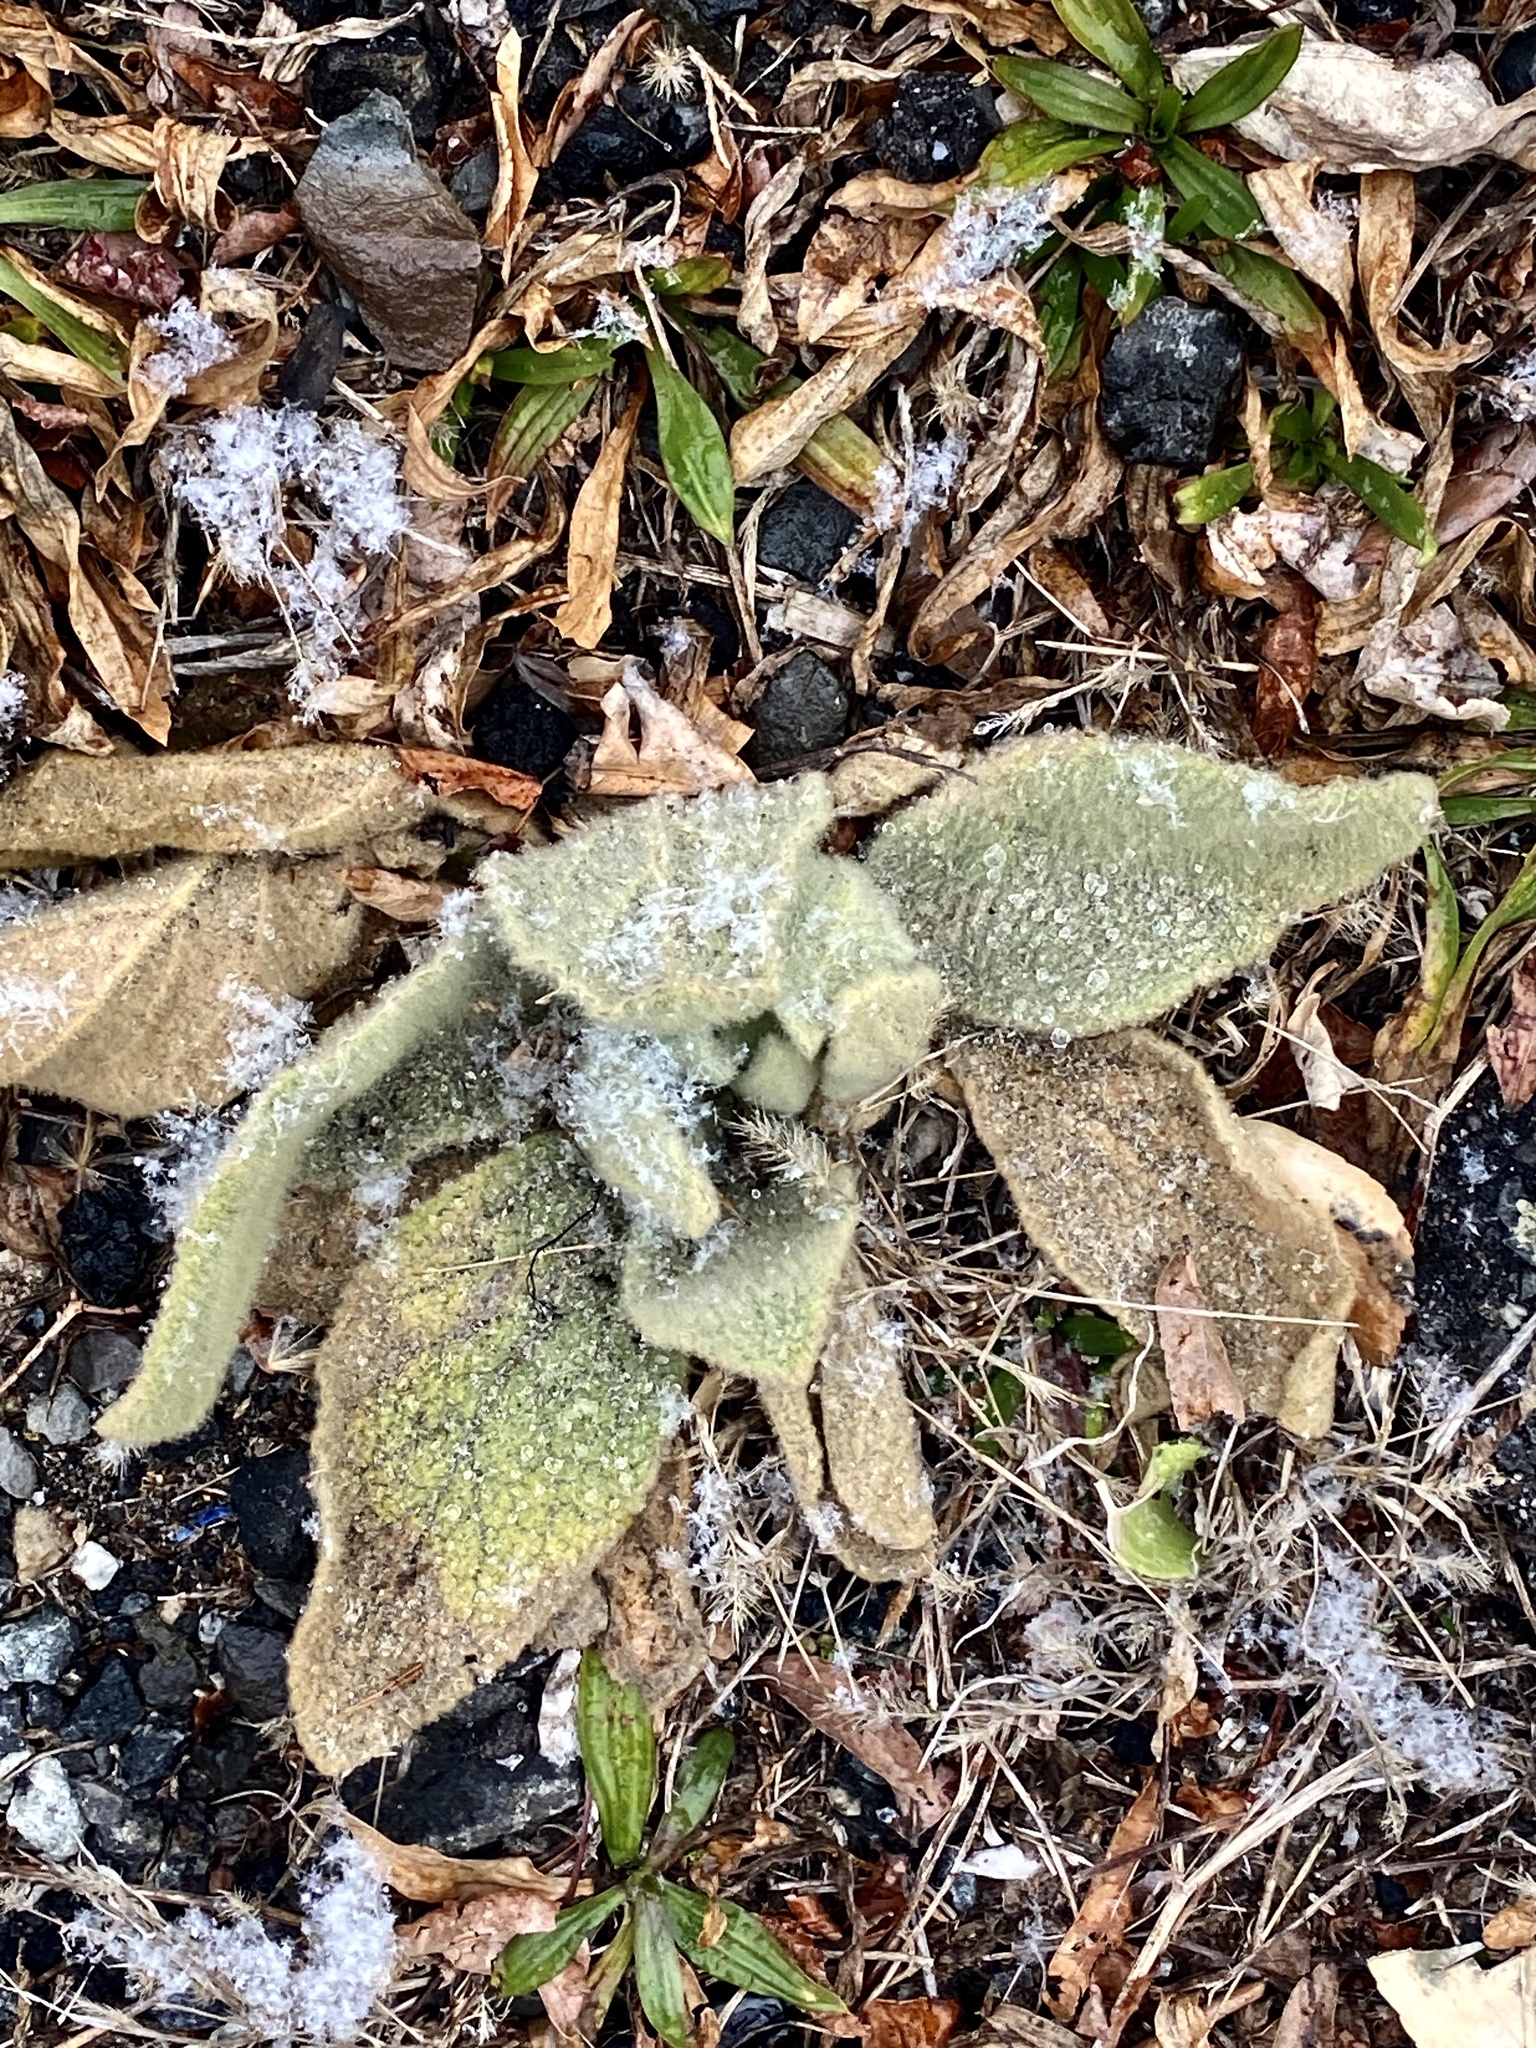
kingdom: Plantae
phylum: Tracheophyta
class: Magnoliopsida
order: Lamiales
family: Scrophulariaceae
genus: Verbascum
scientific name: Verbascum thapsus
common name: Common mullein
